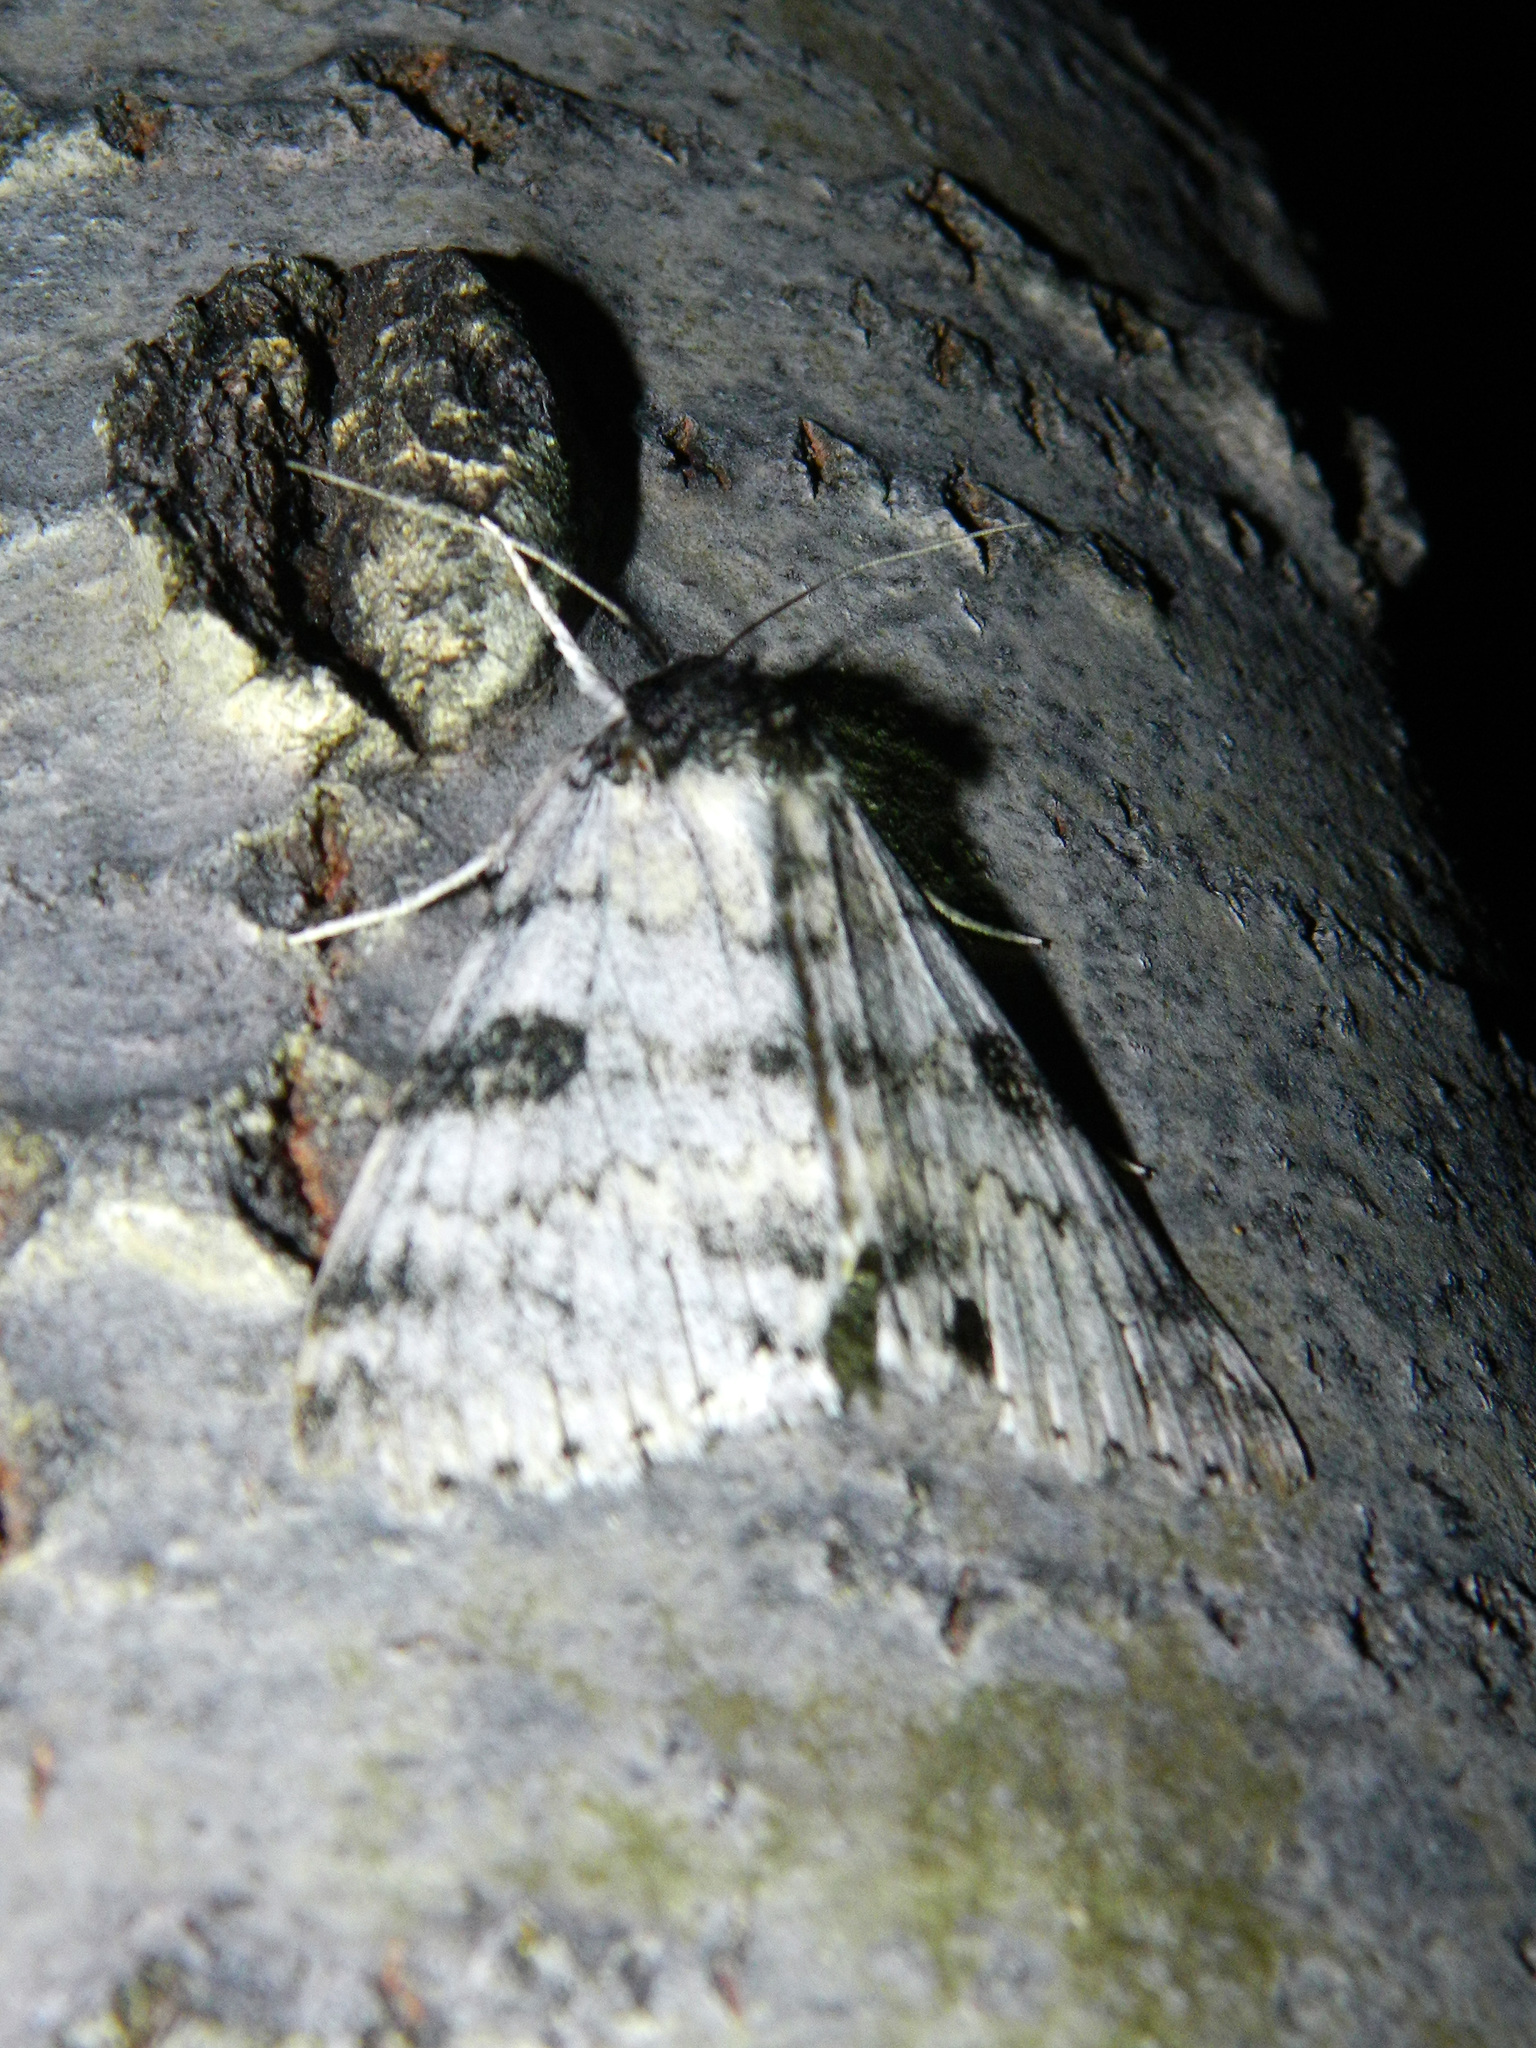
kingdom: Animalia
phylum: Arthropoda
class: Insecta
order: Lepidoptera
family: Erebidae
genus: Catocala
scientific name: Catocala relicta
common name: White underwing
